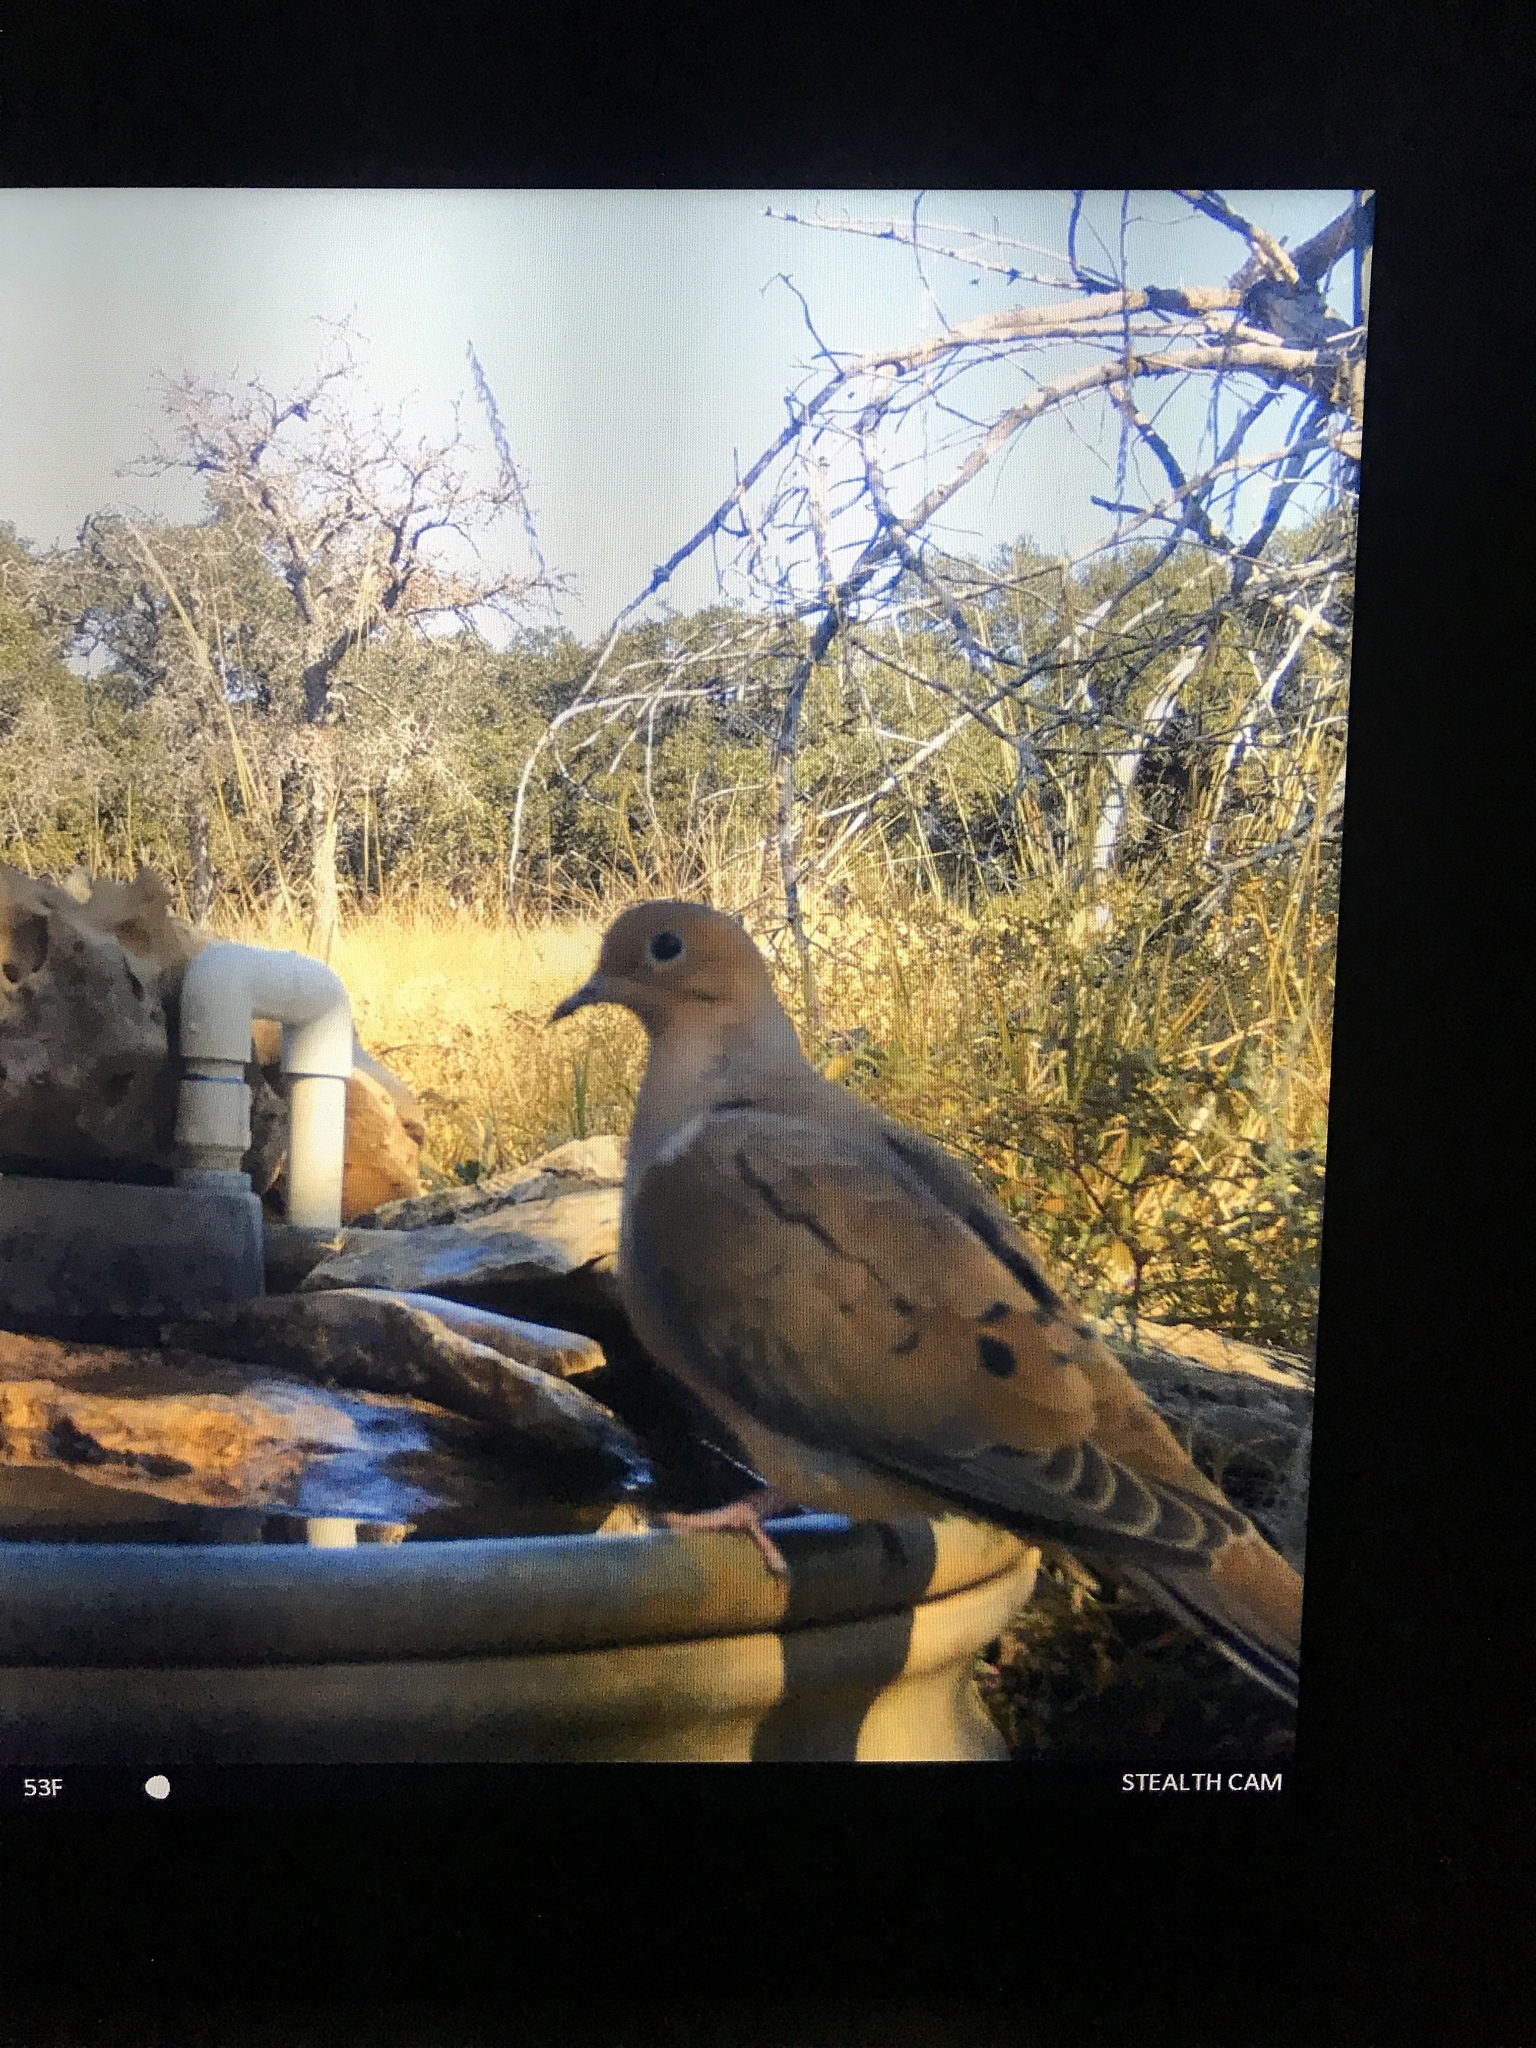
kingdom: Animalia
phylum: Chordata
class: Aves
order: Columbiformes
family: Columbidae
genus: Zenaida
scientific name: Zenaida macroura
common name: Mourning dove
